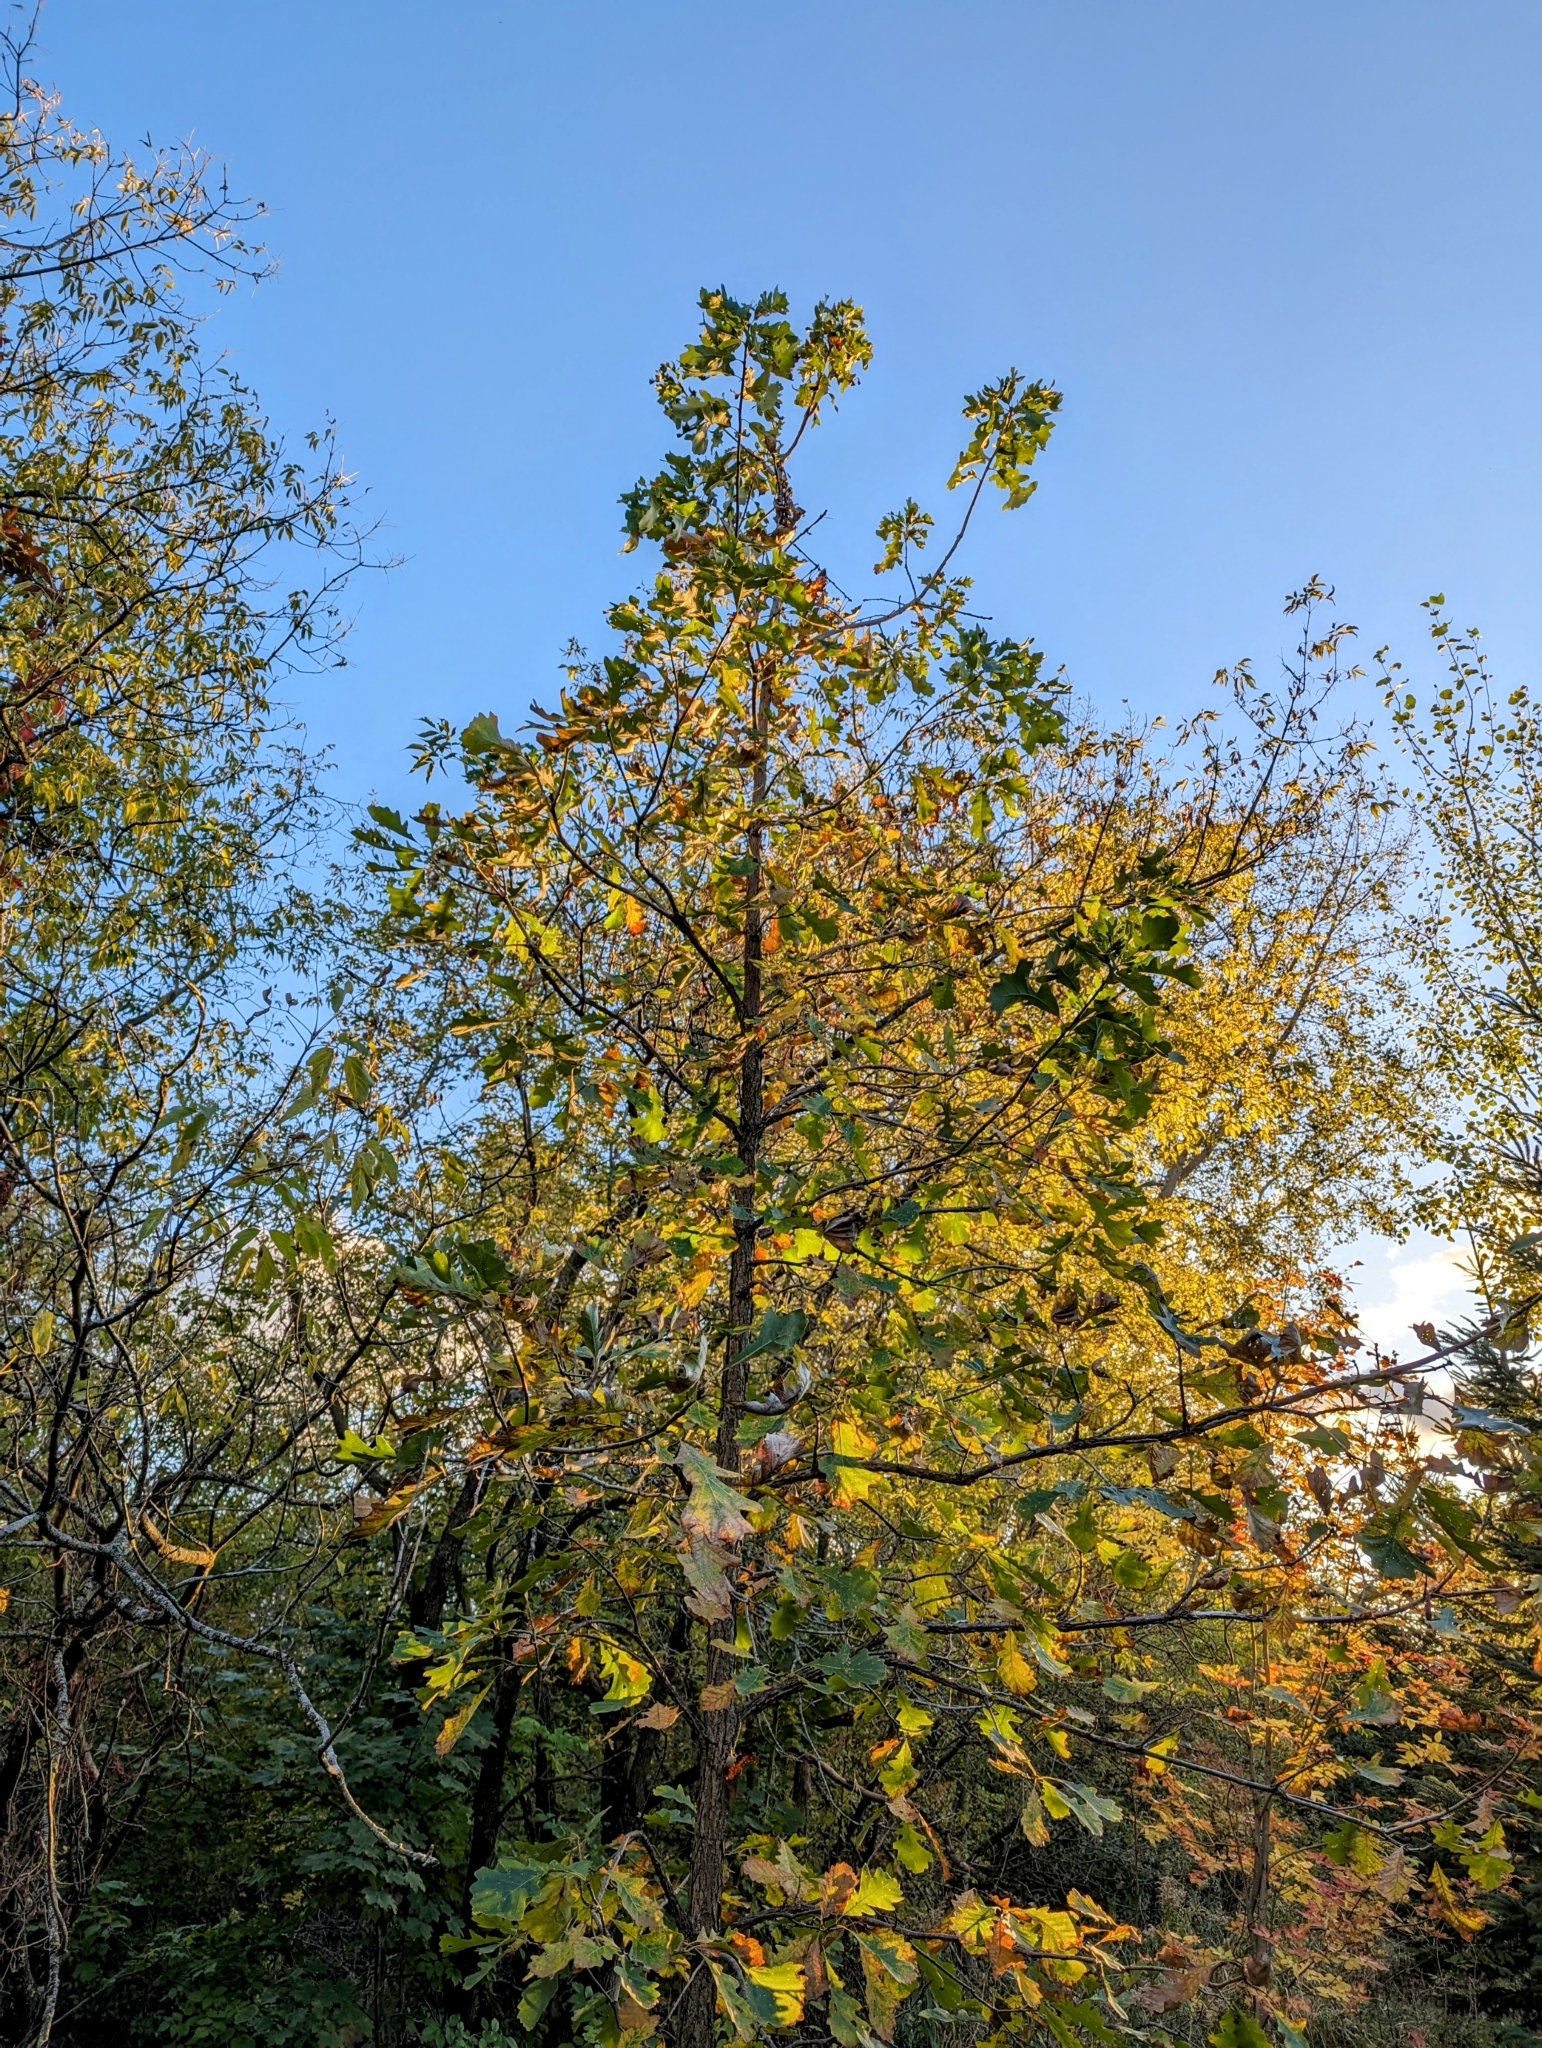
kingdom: Plantae
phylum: Tracheophyta
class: Magnoliopsida
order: Fagales
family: Fagaceae
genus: Quercus
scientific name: Quercus macrocarpa
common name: Bur oak
